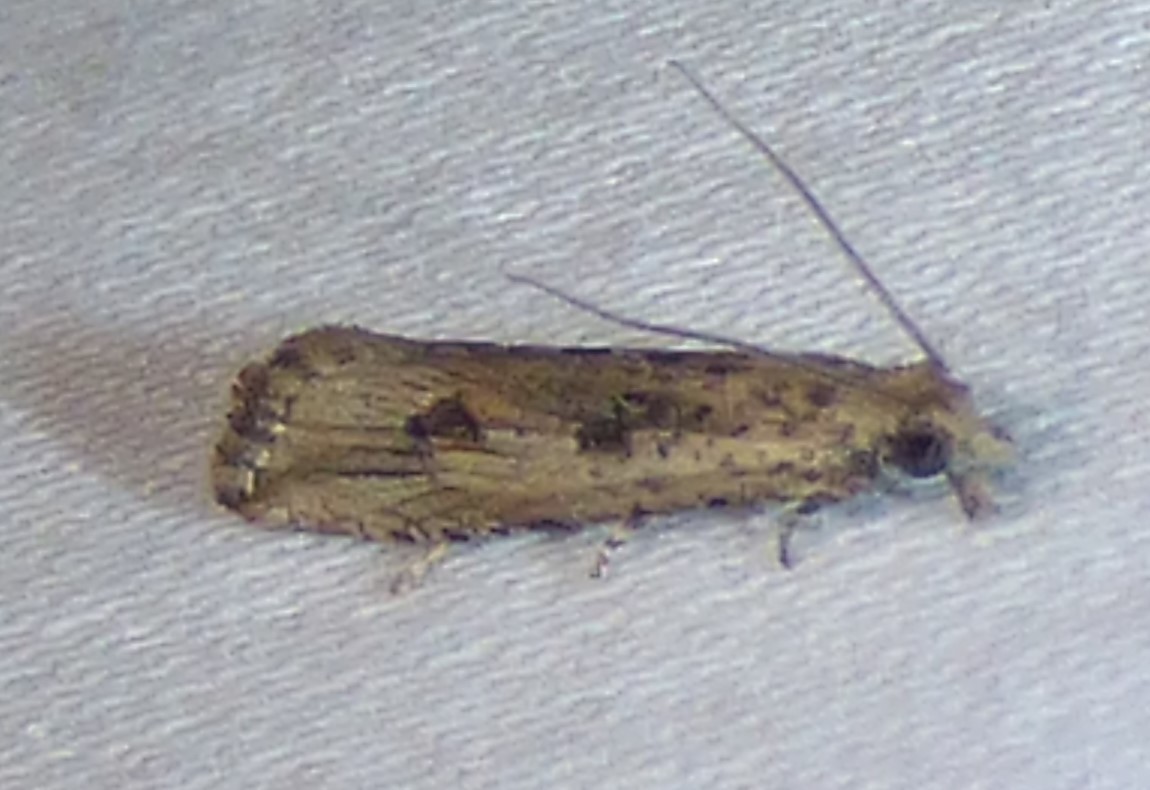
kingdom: Animalia
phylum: Arthropoda
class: Insecta
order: Lepidoptera
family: Tortricidae
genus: Bactra
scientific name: Bactra verutana
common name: Javelin moth
